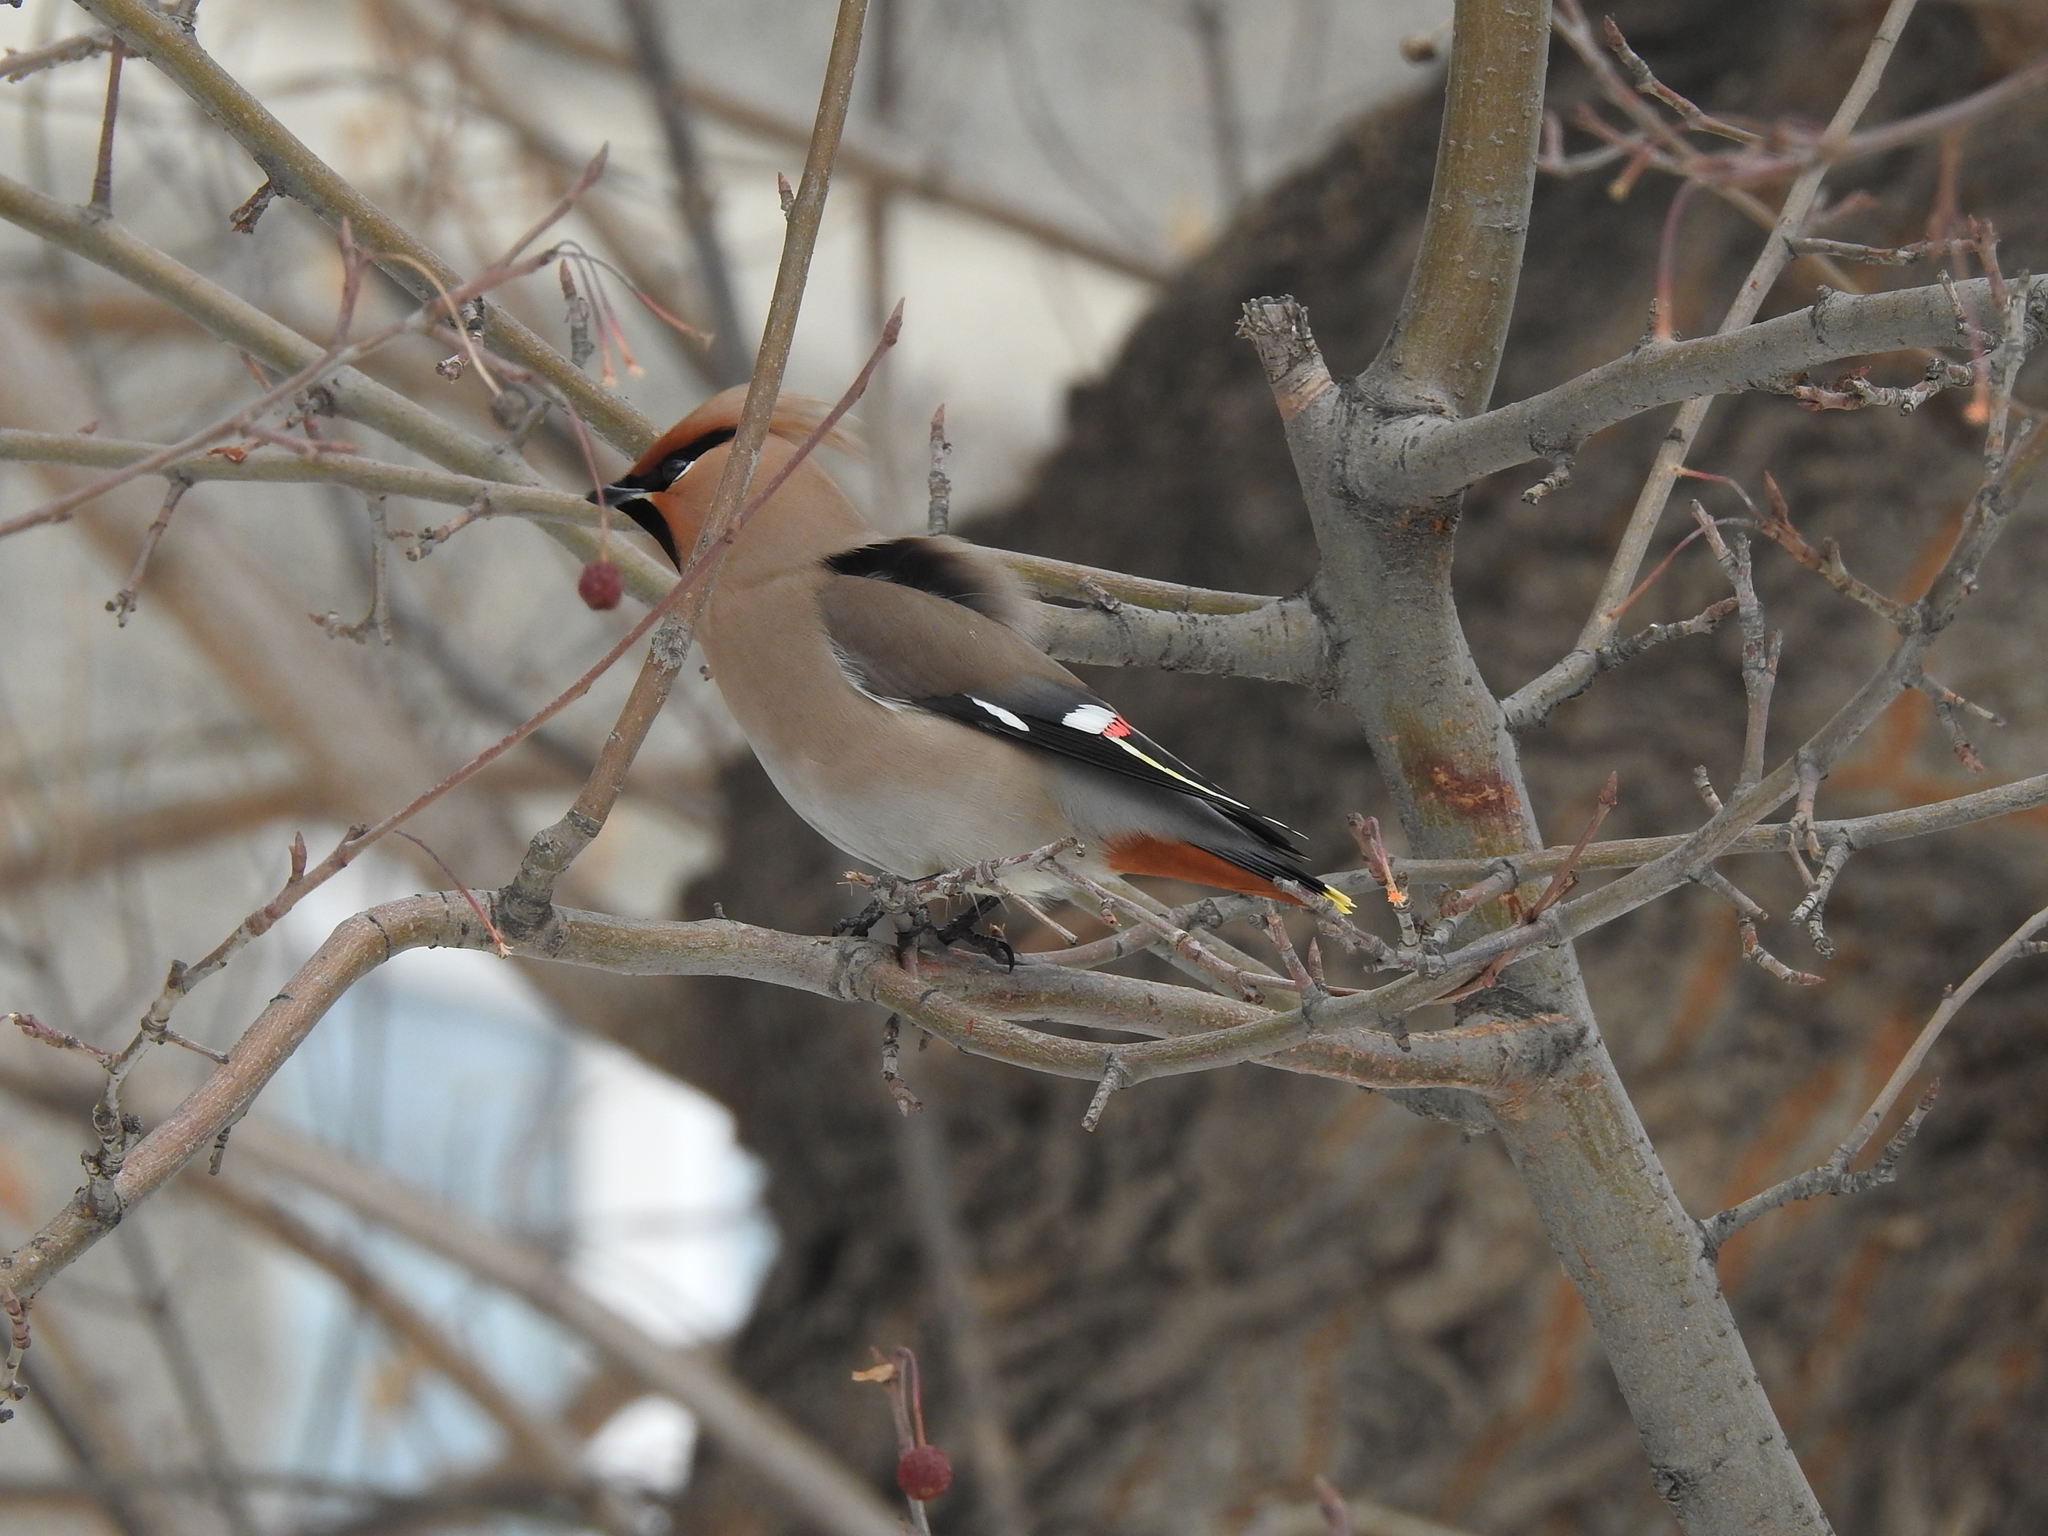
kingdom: Animalia
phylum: Chordata
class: Aves
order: Passeriformes
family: Bombycillidae
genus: Bombycilla
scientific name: Bombycilla garrulus
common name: Bohemian waxwing
